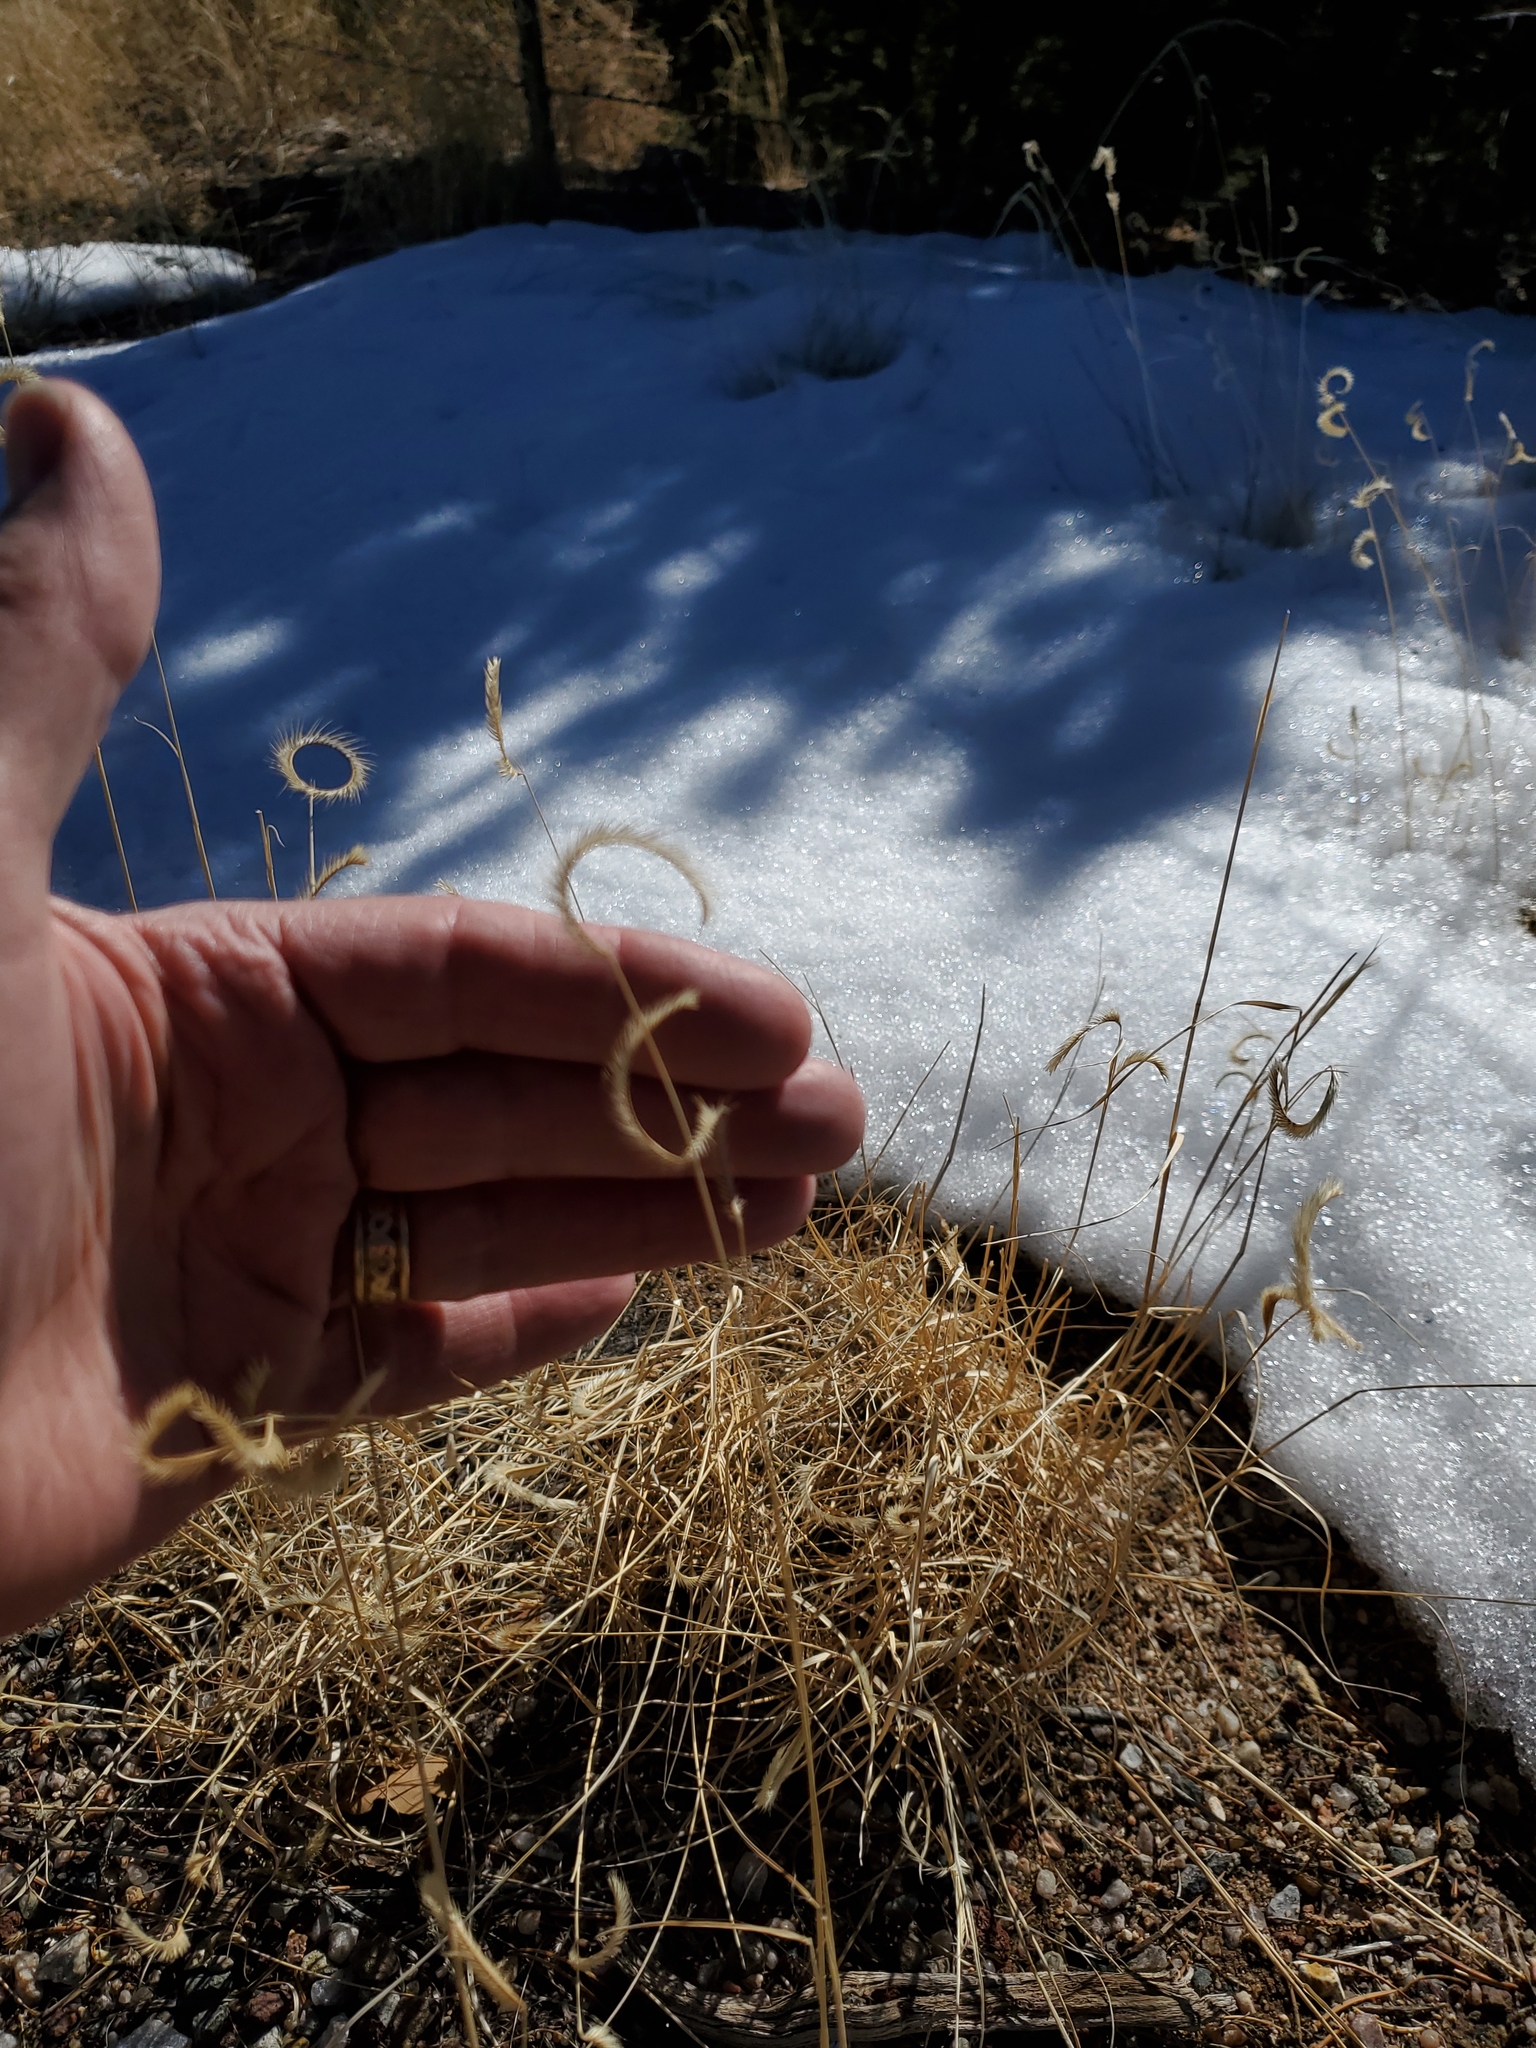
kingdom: Plantae
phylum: Tracheophyta
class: Liliopsida
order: Poales
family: Poaceae
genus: Bouteloua
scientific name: Bouteloua gracilis
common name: Blue grama
